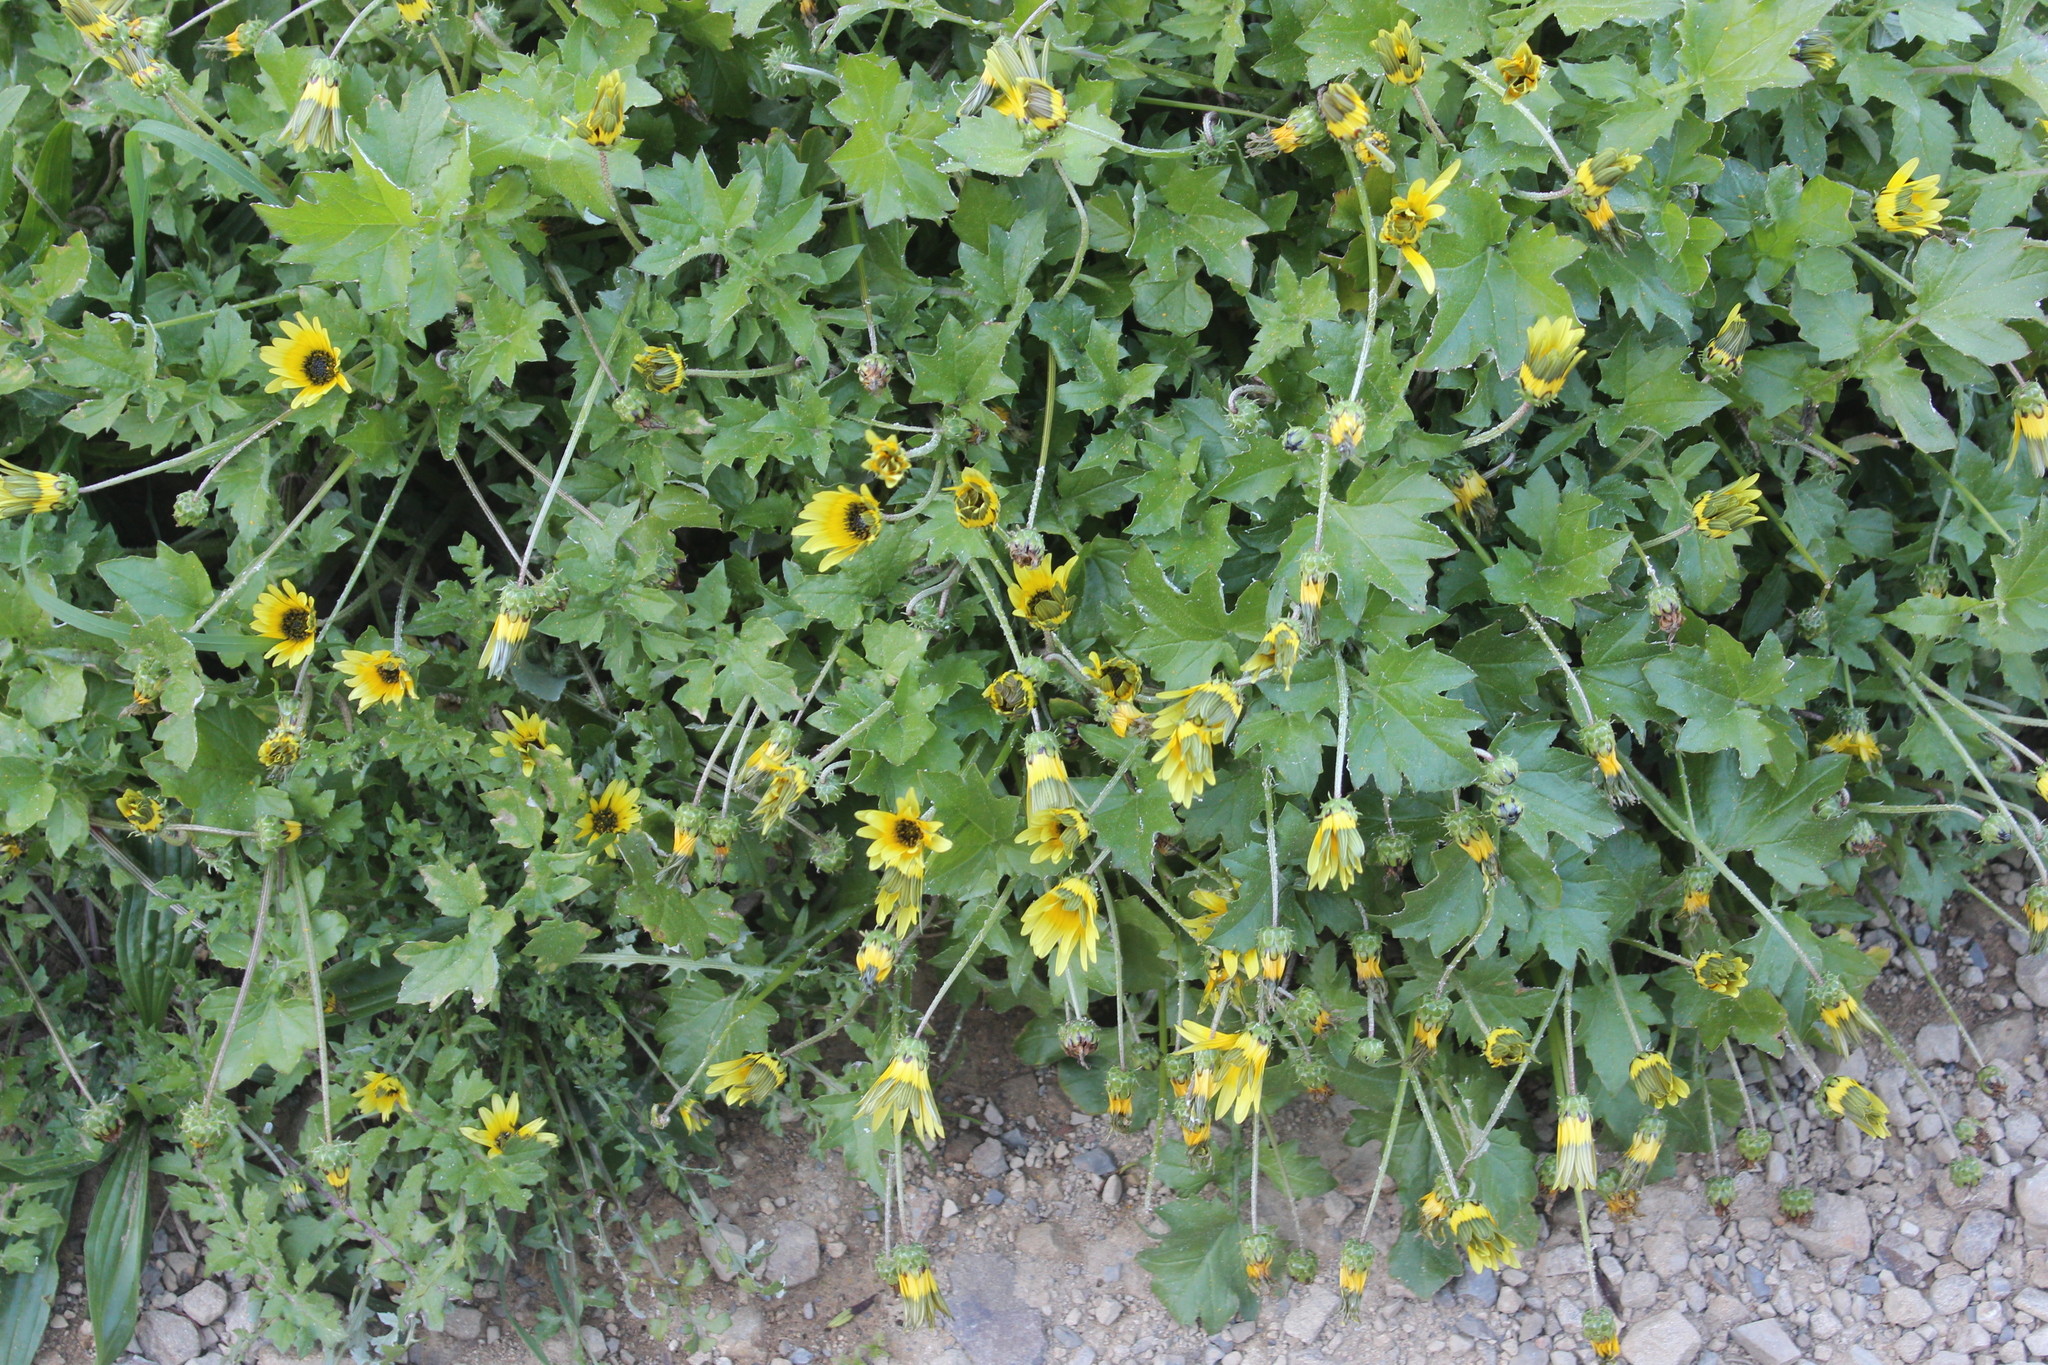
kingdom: Plantae
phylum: Tracheophyta
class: Magnoliopsida
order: Asterales
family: Asteraceae
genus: Arctotheca
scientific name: Arctotheca calendula
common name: Capeweed
